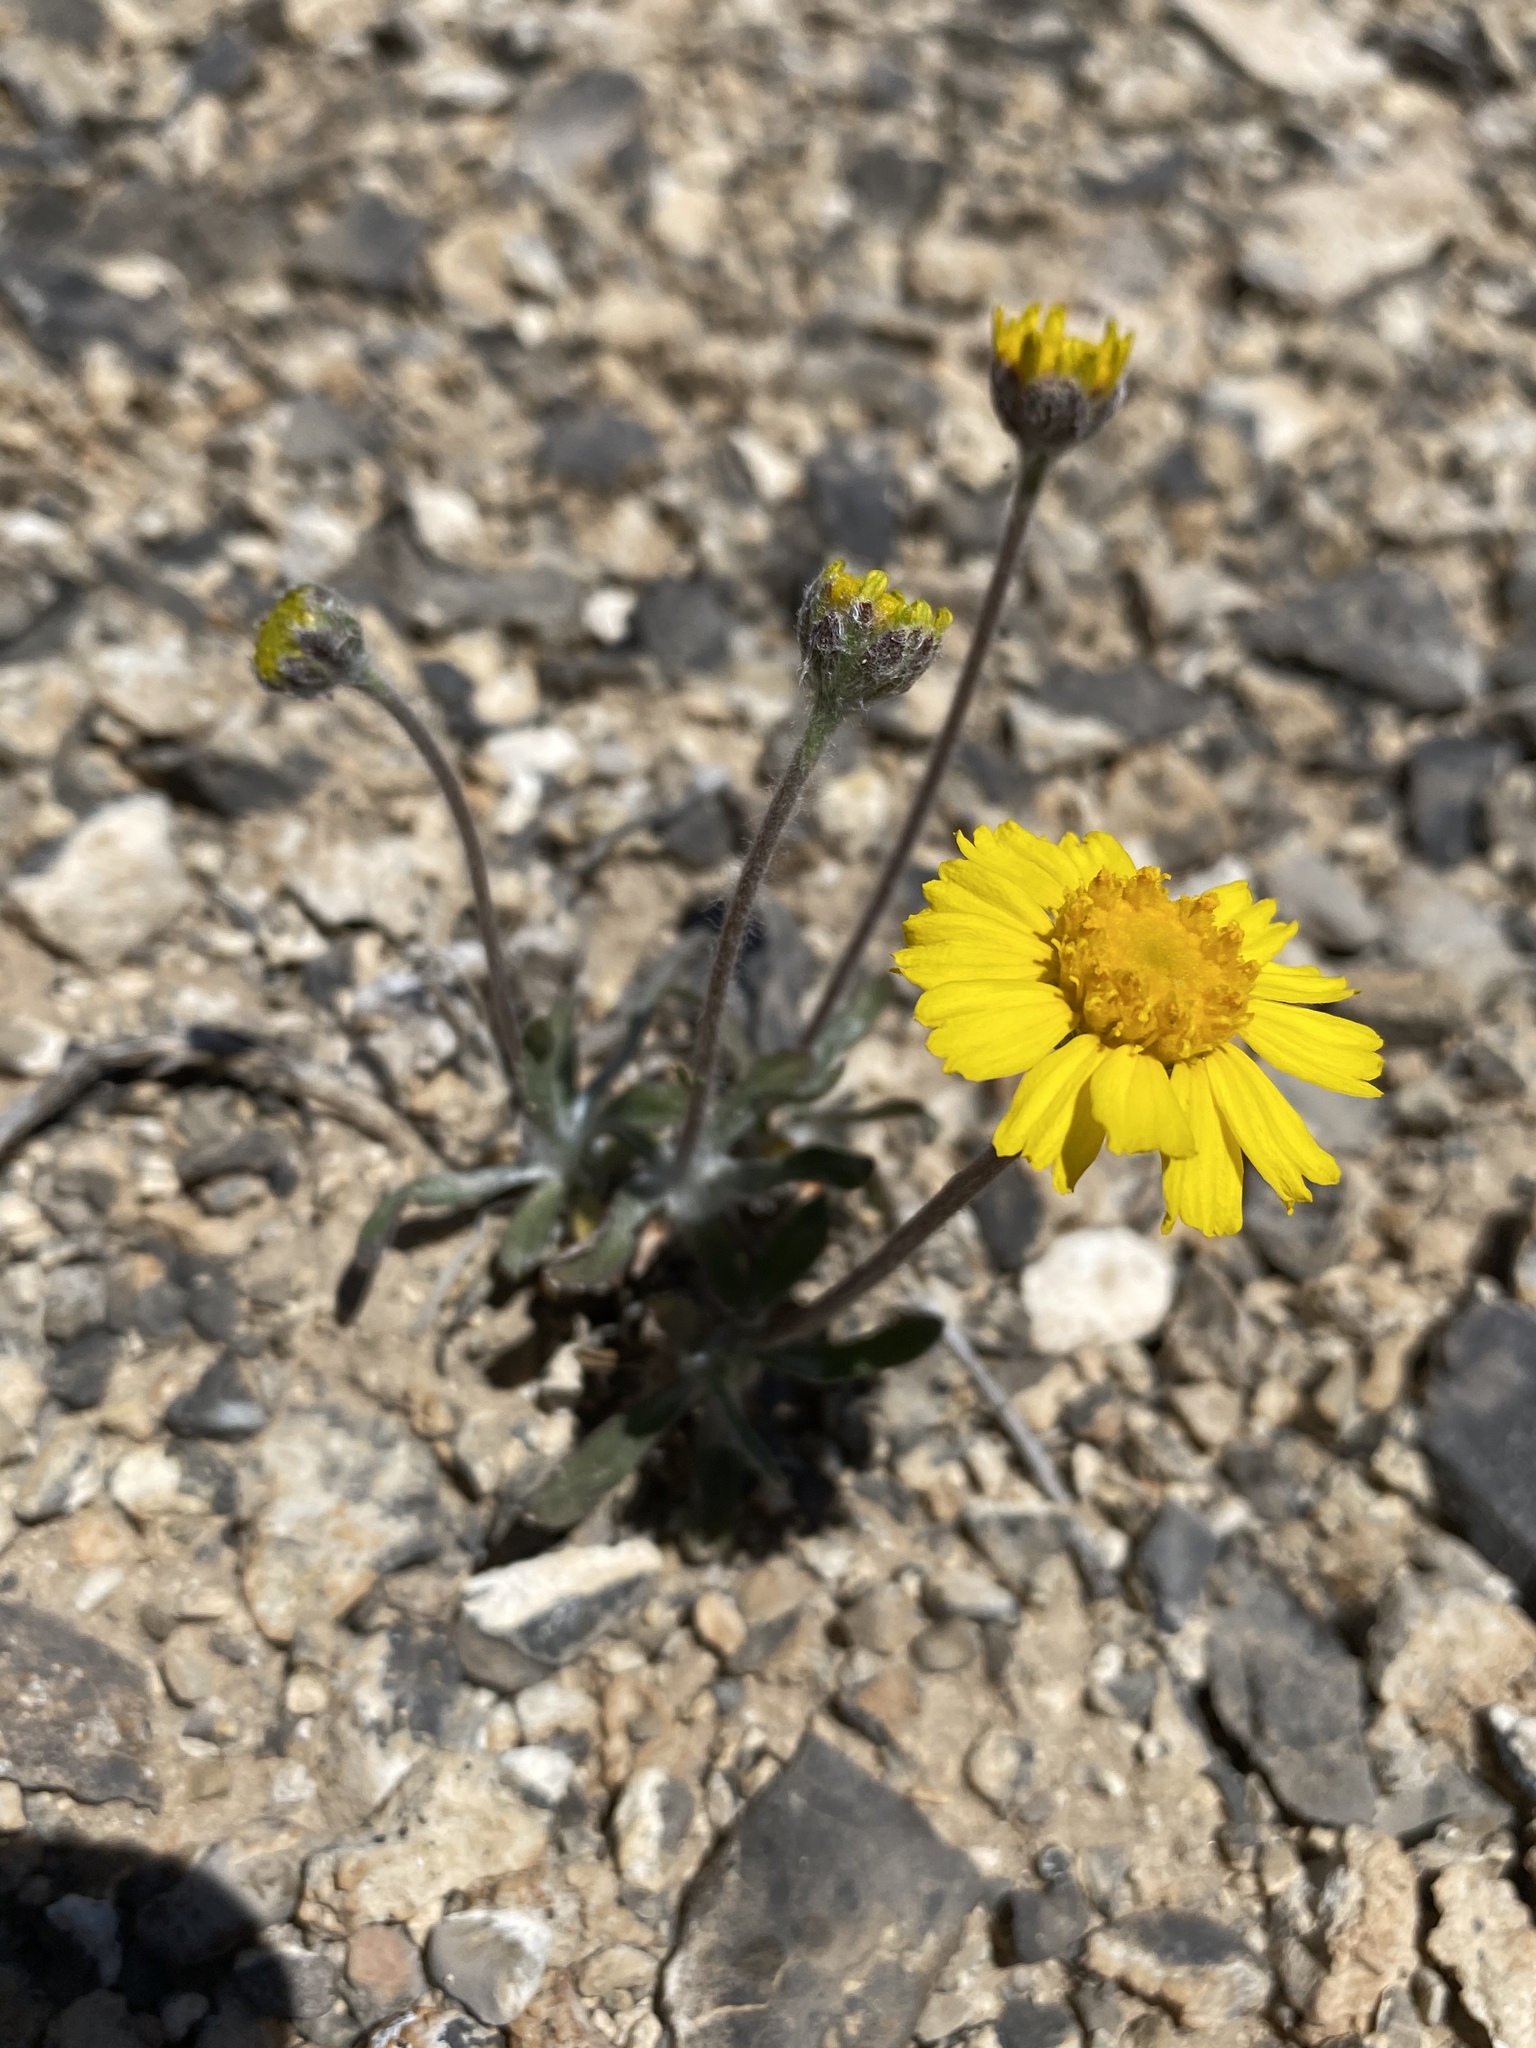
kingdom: Plantae
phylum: Tracheophyta
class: Magnoliopsida
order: Asterales
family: Asteraceae
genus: Tetraneuris
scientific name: Tetraneuris acaulis
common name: Butte marigold
